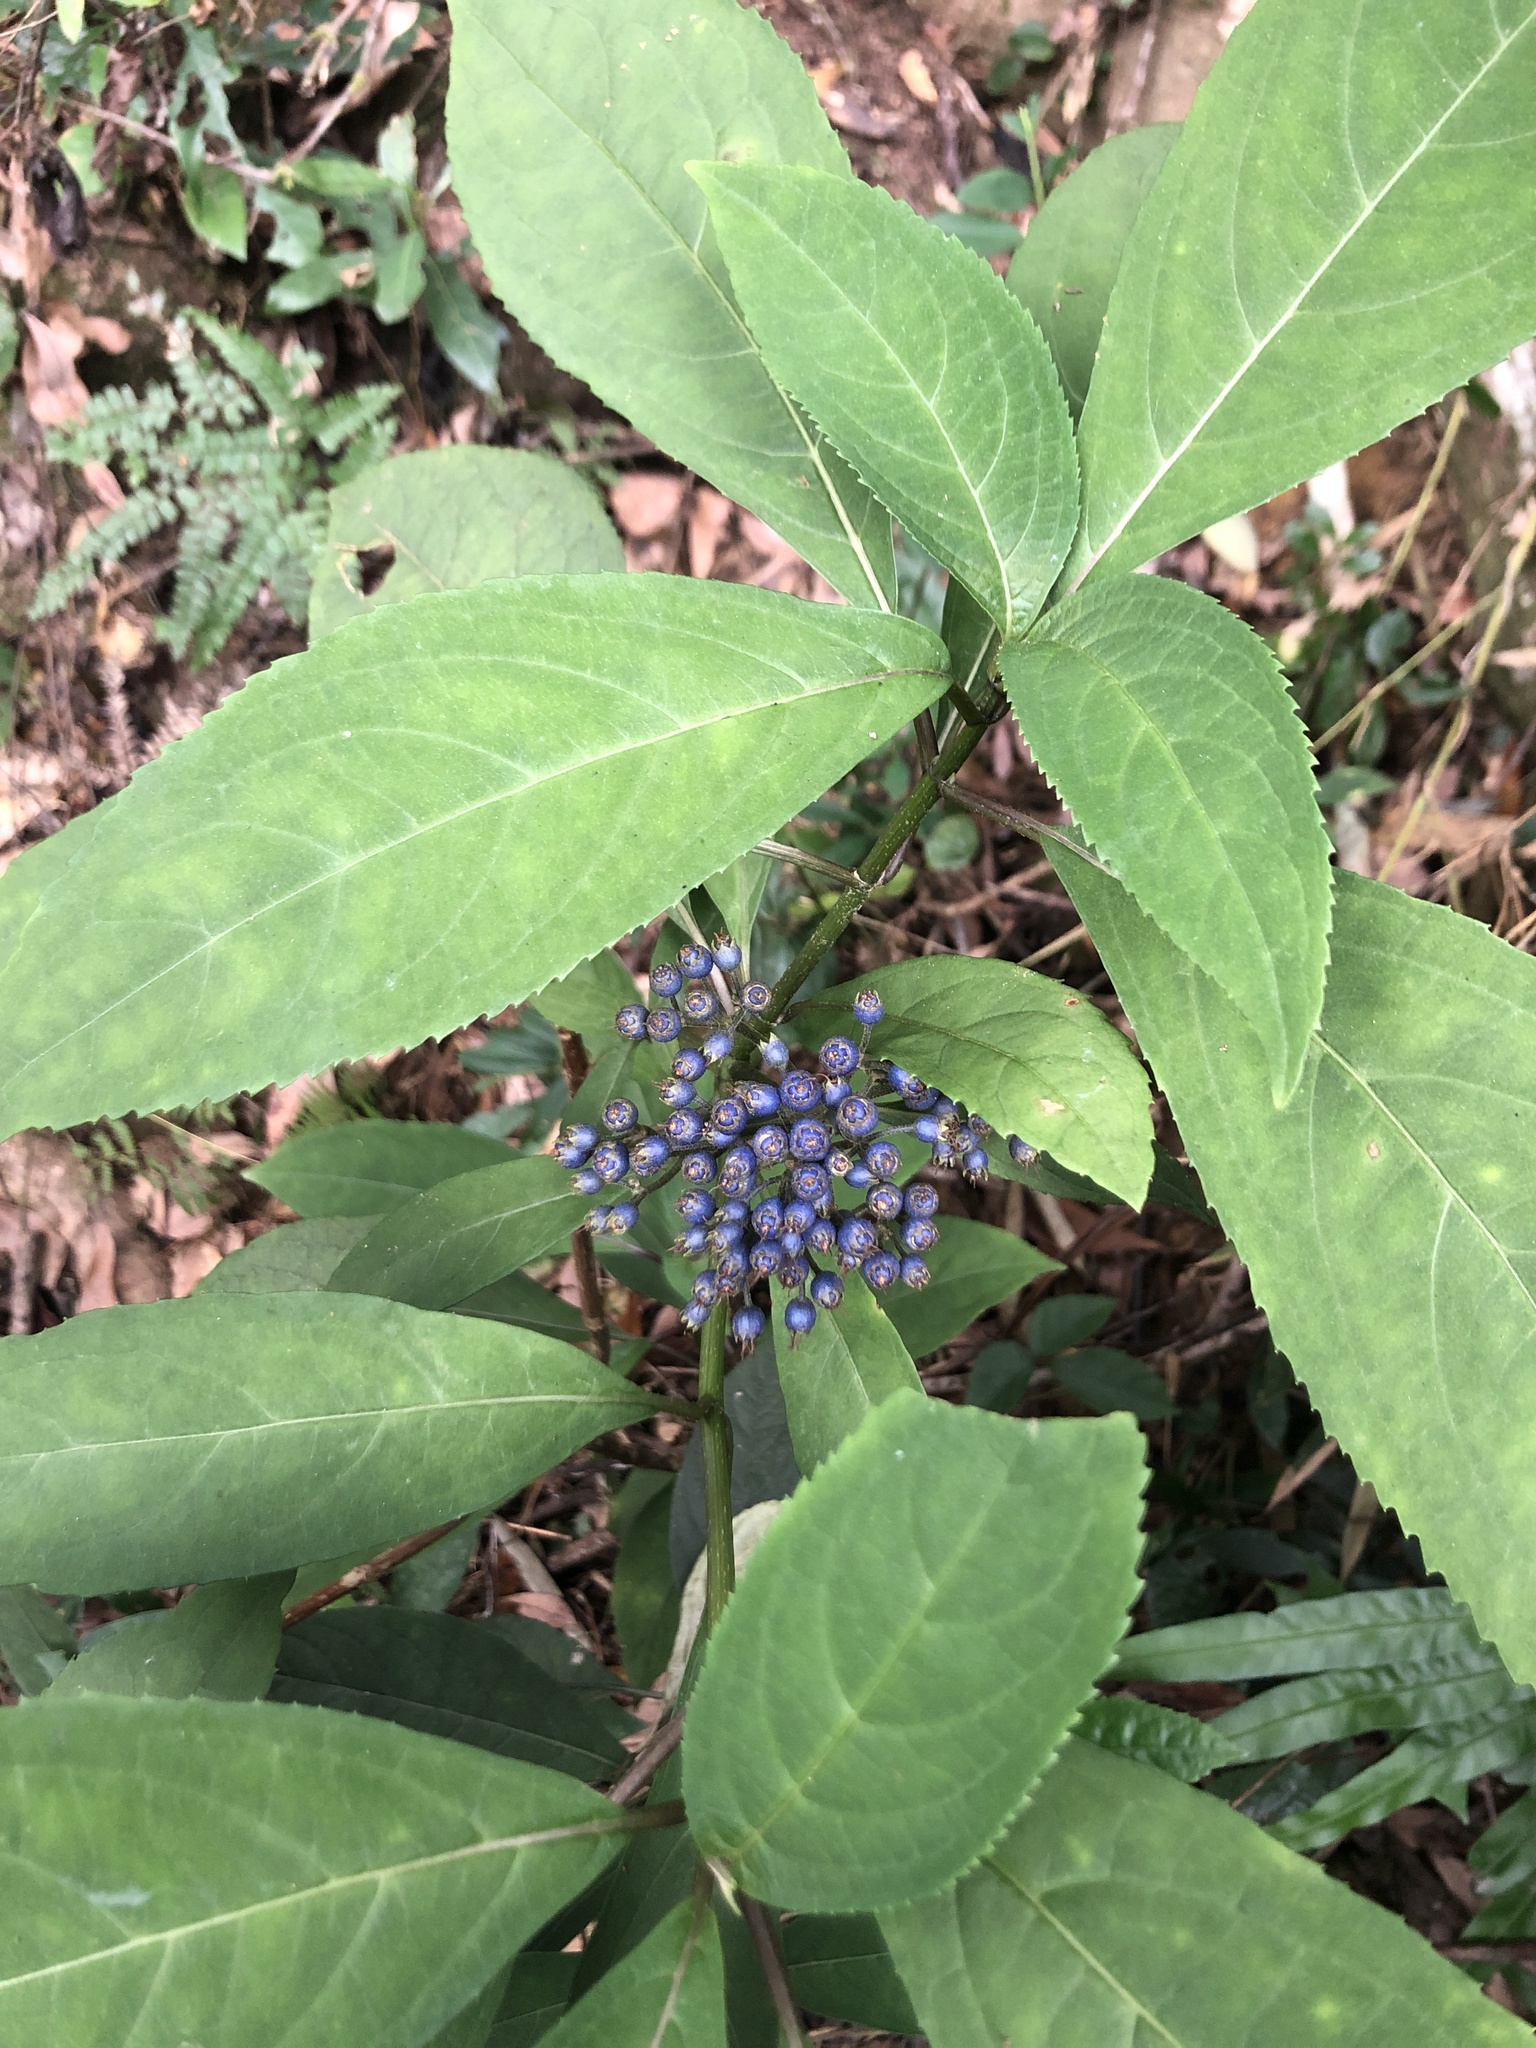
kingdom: Plantae
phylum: Tracheophyta
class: Magnoliopsida
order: Cornales
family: Hydrangeaceae
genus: Hydrangea
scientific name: Hydrangea febrifuga
